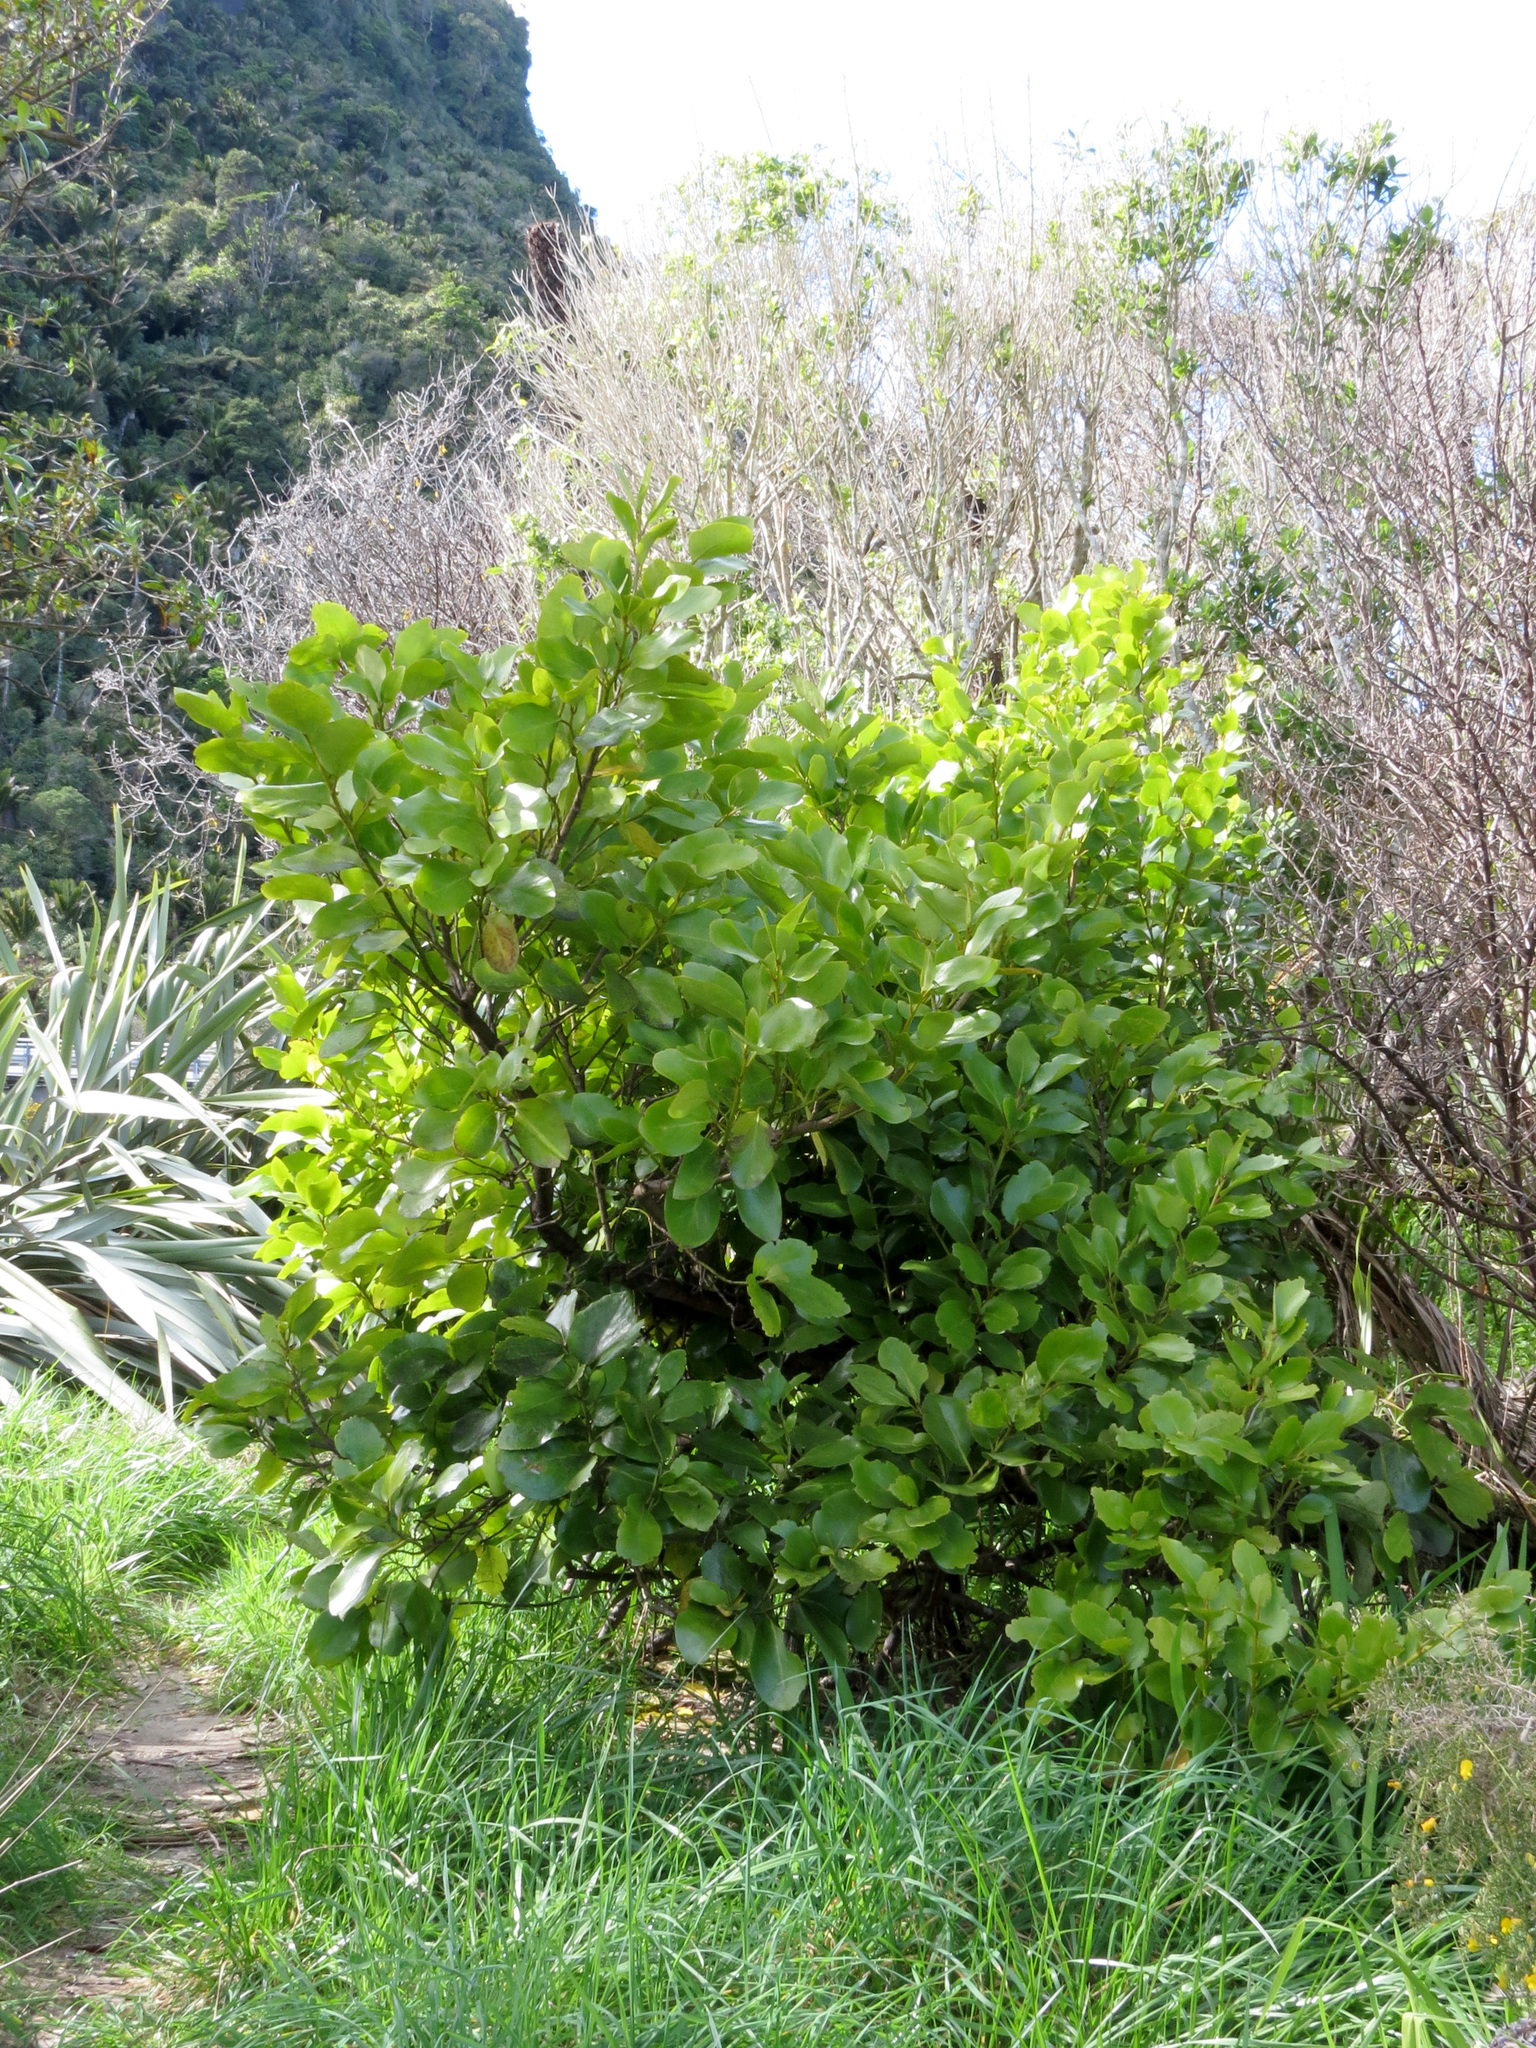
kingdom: Plantae
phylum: Tracheophyta
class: Magnoliopsida
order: Apiales
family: Griseliniaceae
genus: Griselinia
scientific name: Griselinia lucida
